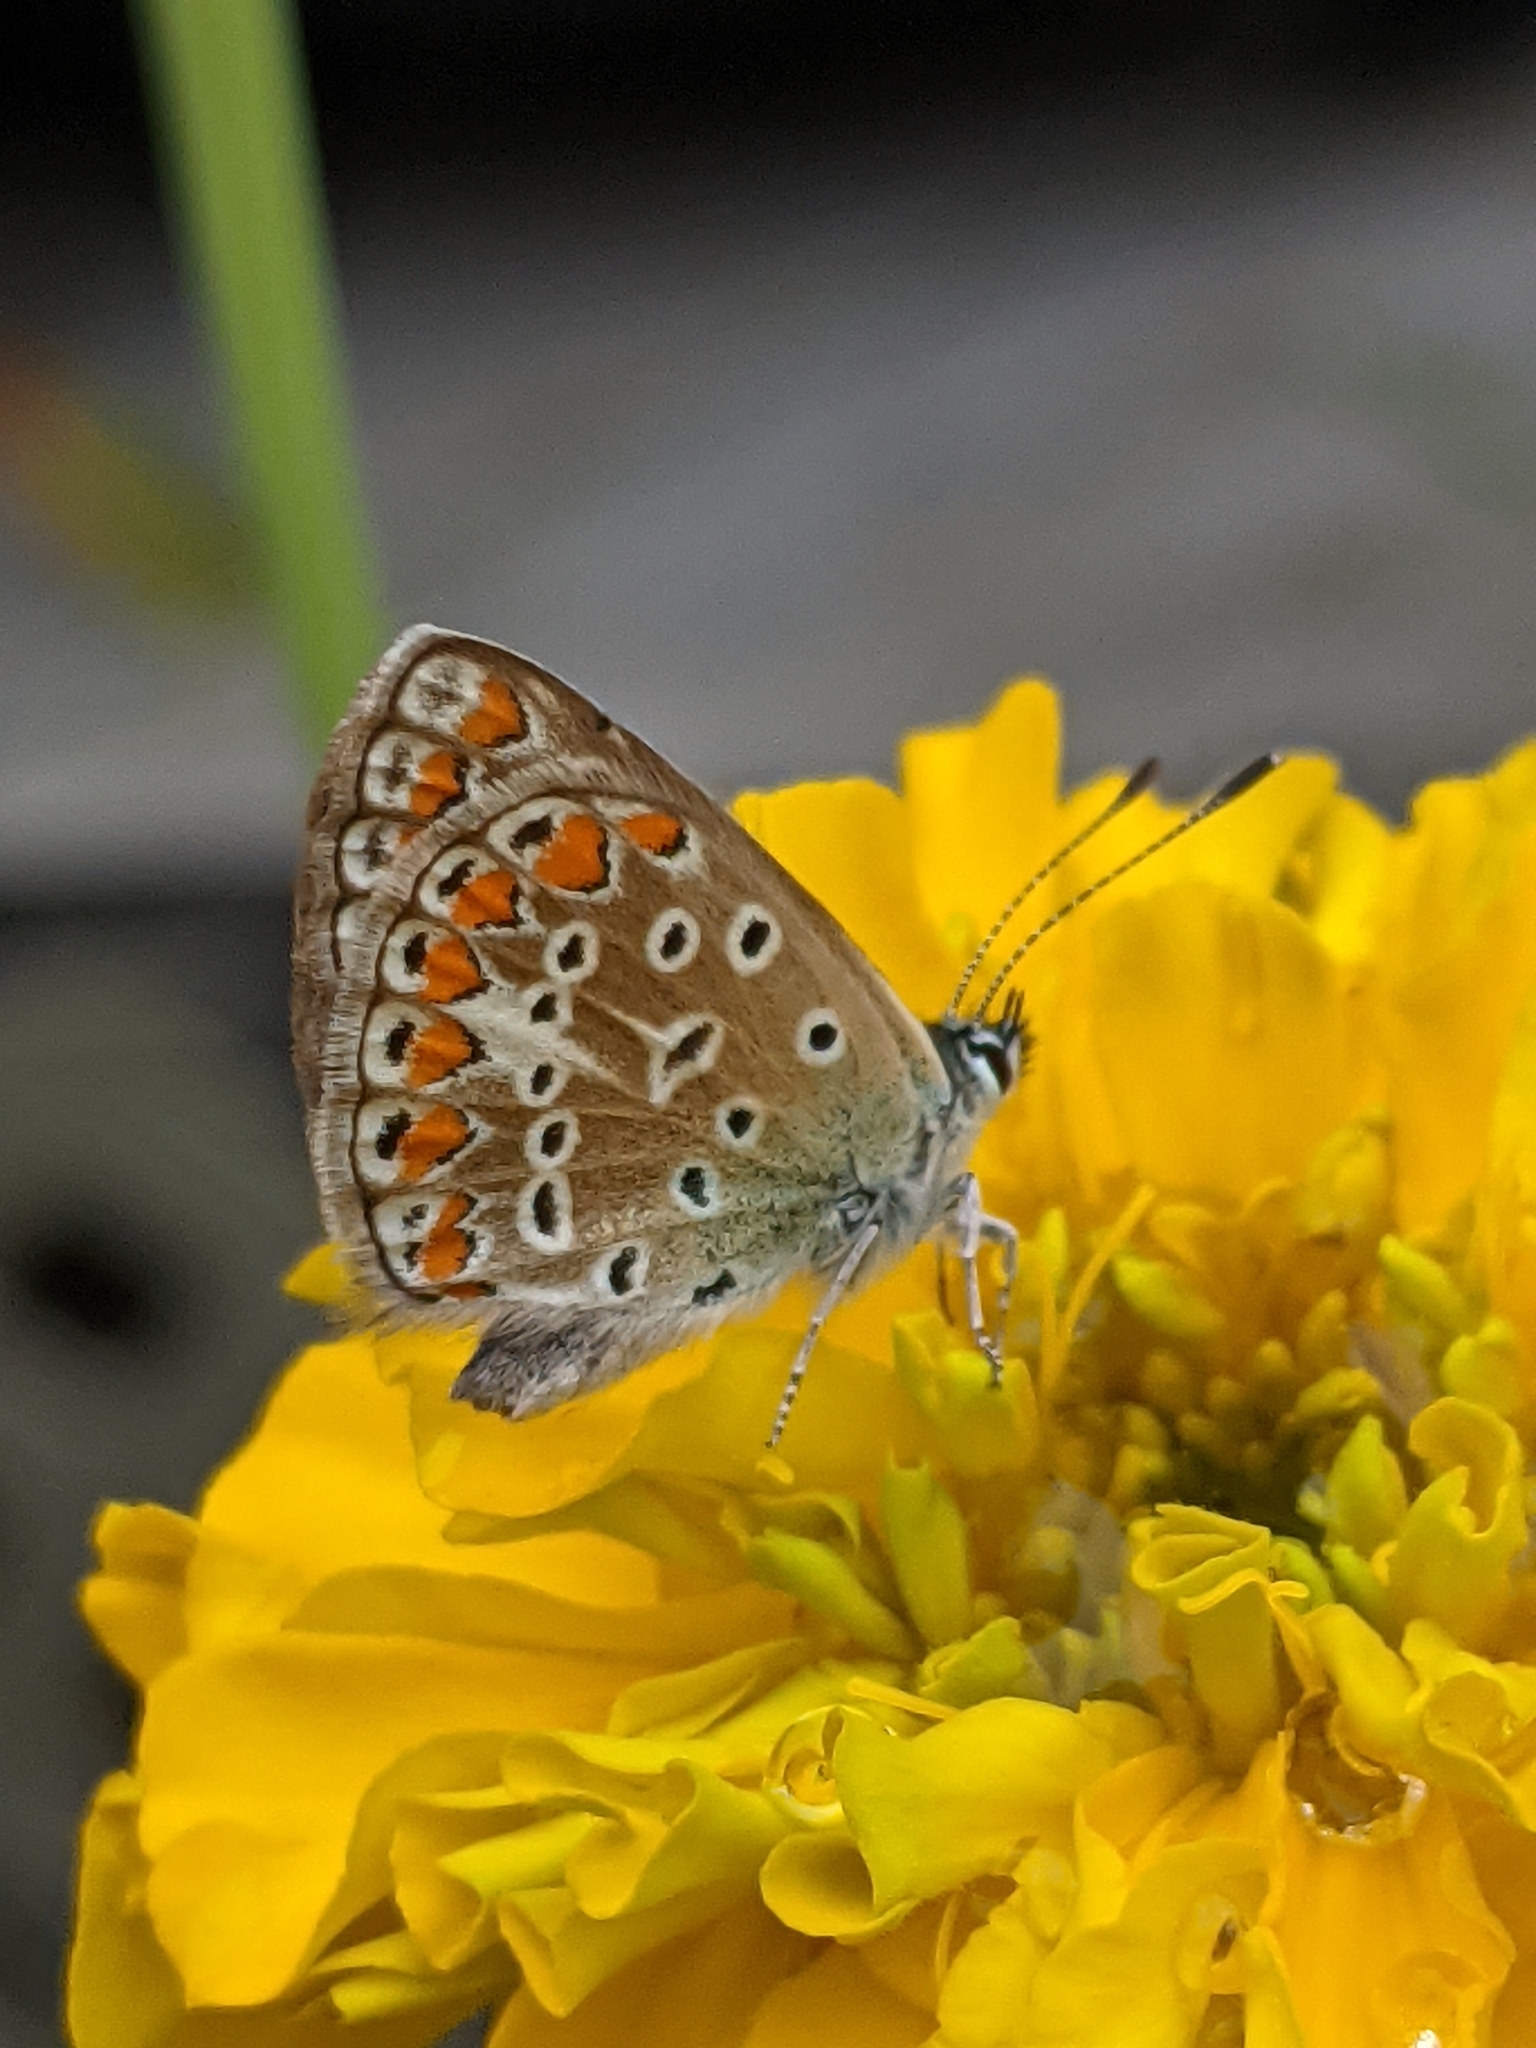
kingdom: Animalia
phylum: Arthropoda
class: Insecta
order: Lepidoptera
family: Lycaenidae
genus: Polyommatus
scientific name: Polyommatus icarus
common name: Common blue
